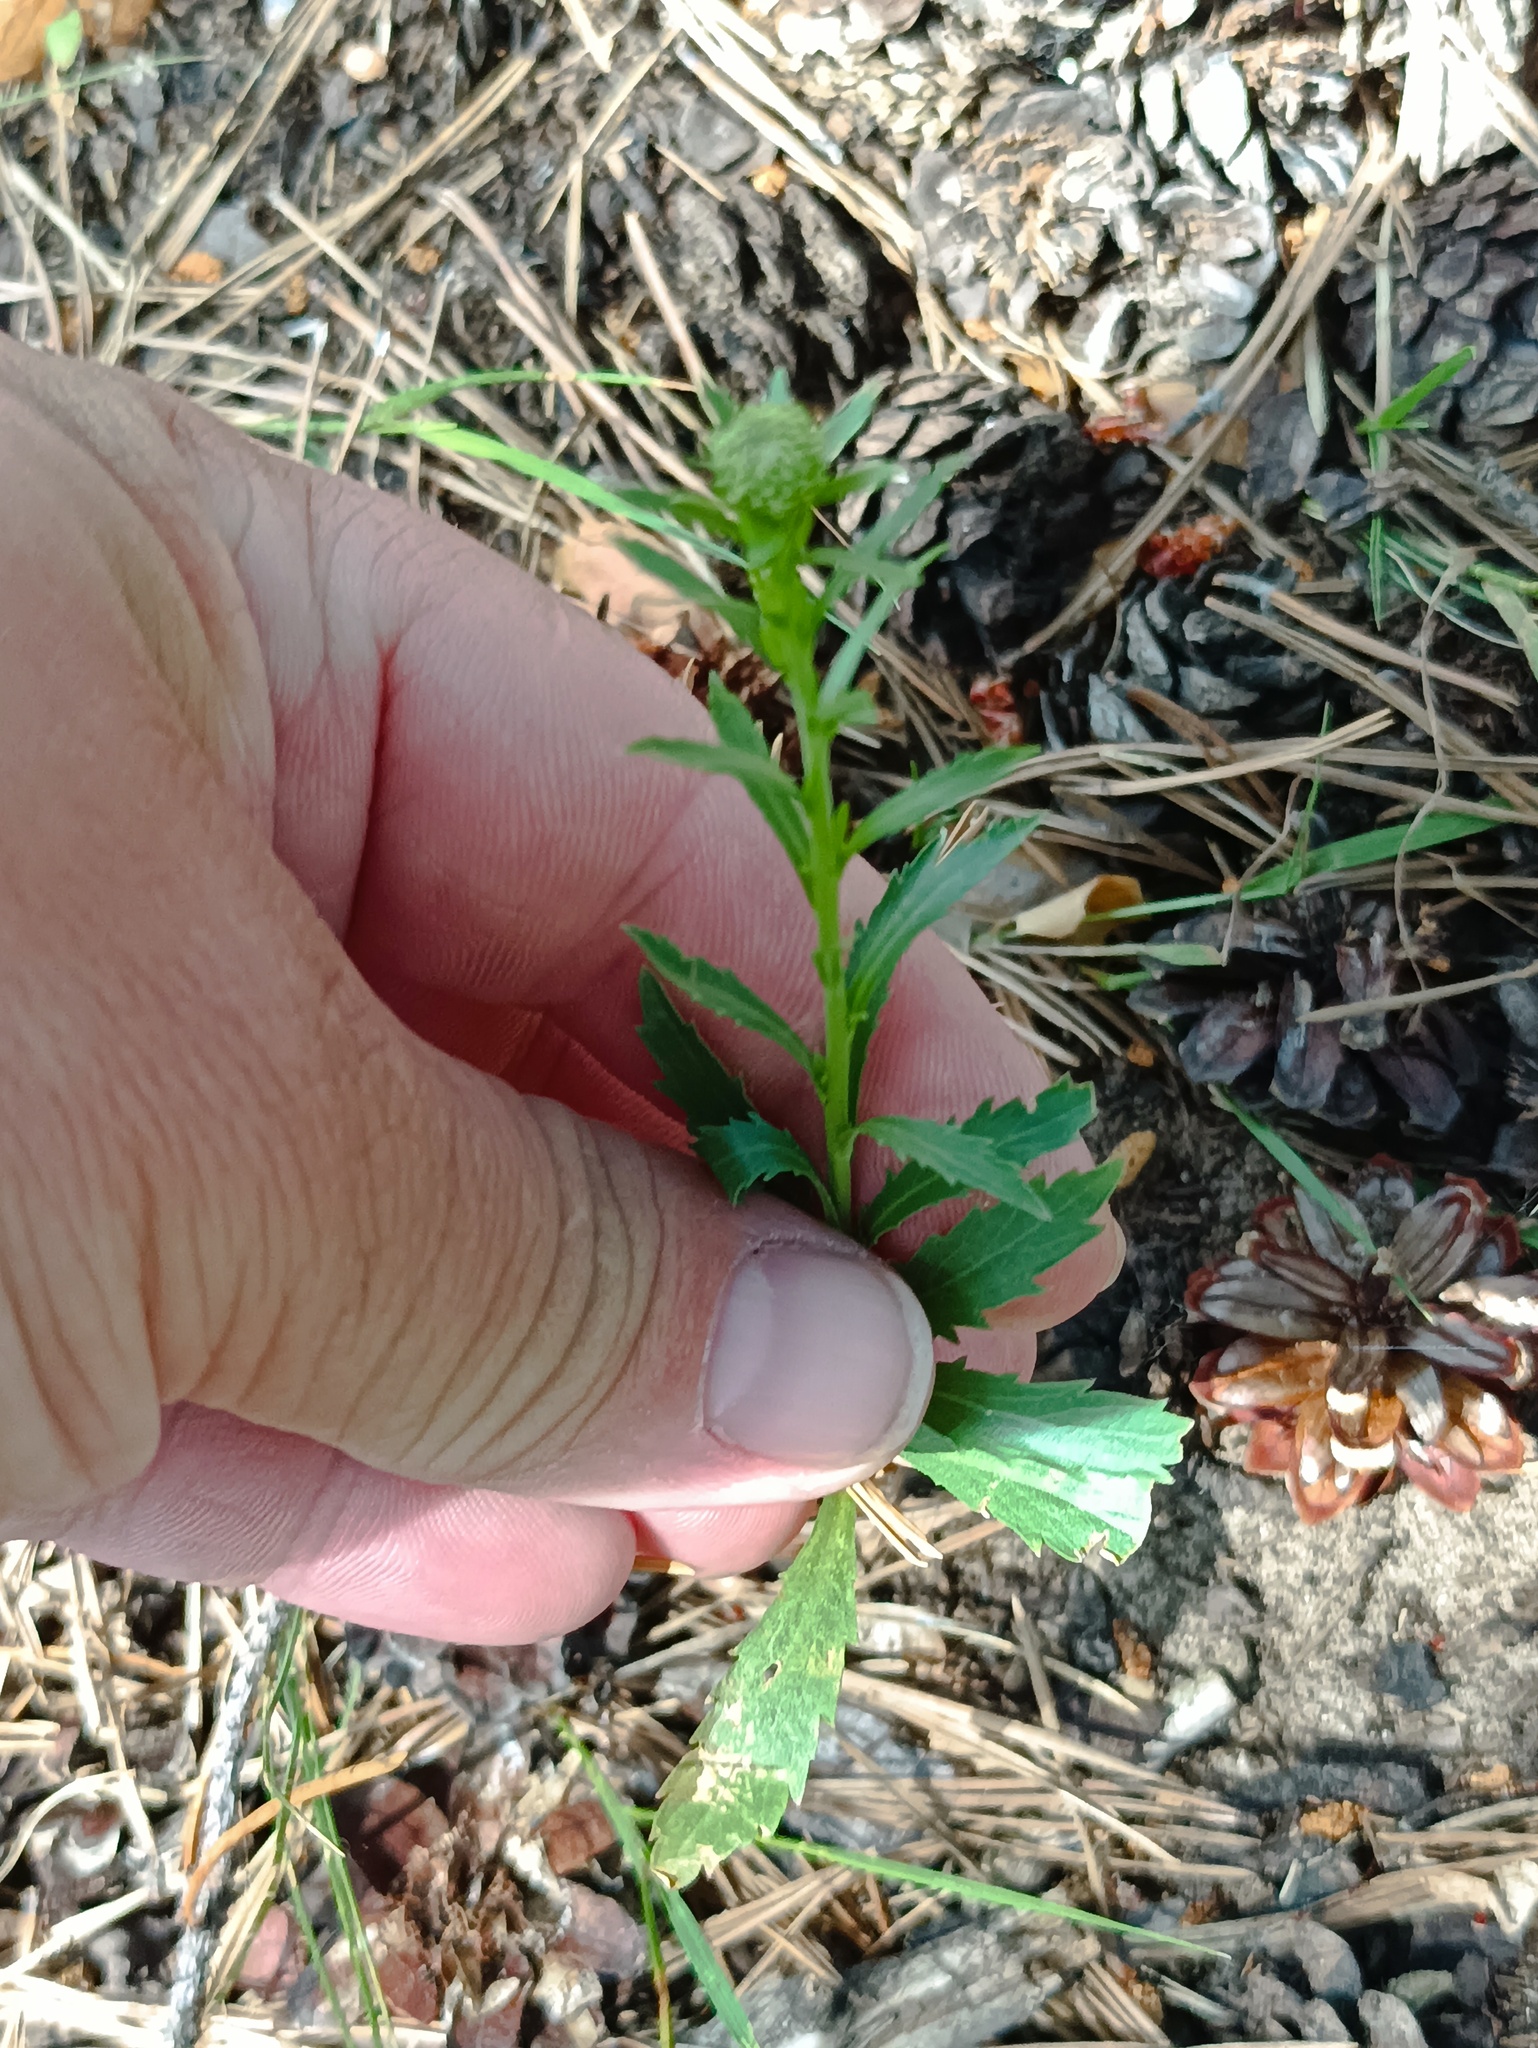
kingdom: Plantae
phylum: Tracheophyta
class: Magnoliopsida
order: Brassicales
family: Brassicaceae
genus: Lepidium
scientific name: Lepidium densiflorum
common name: Miner's pepperwort
